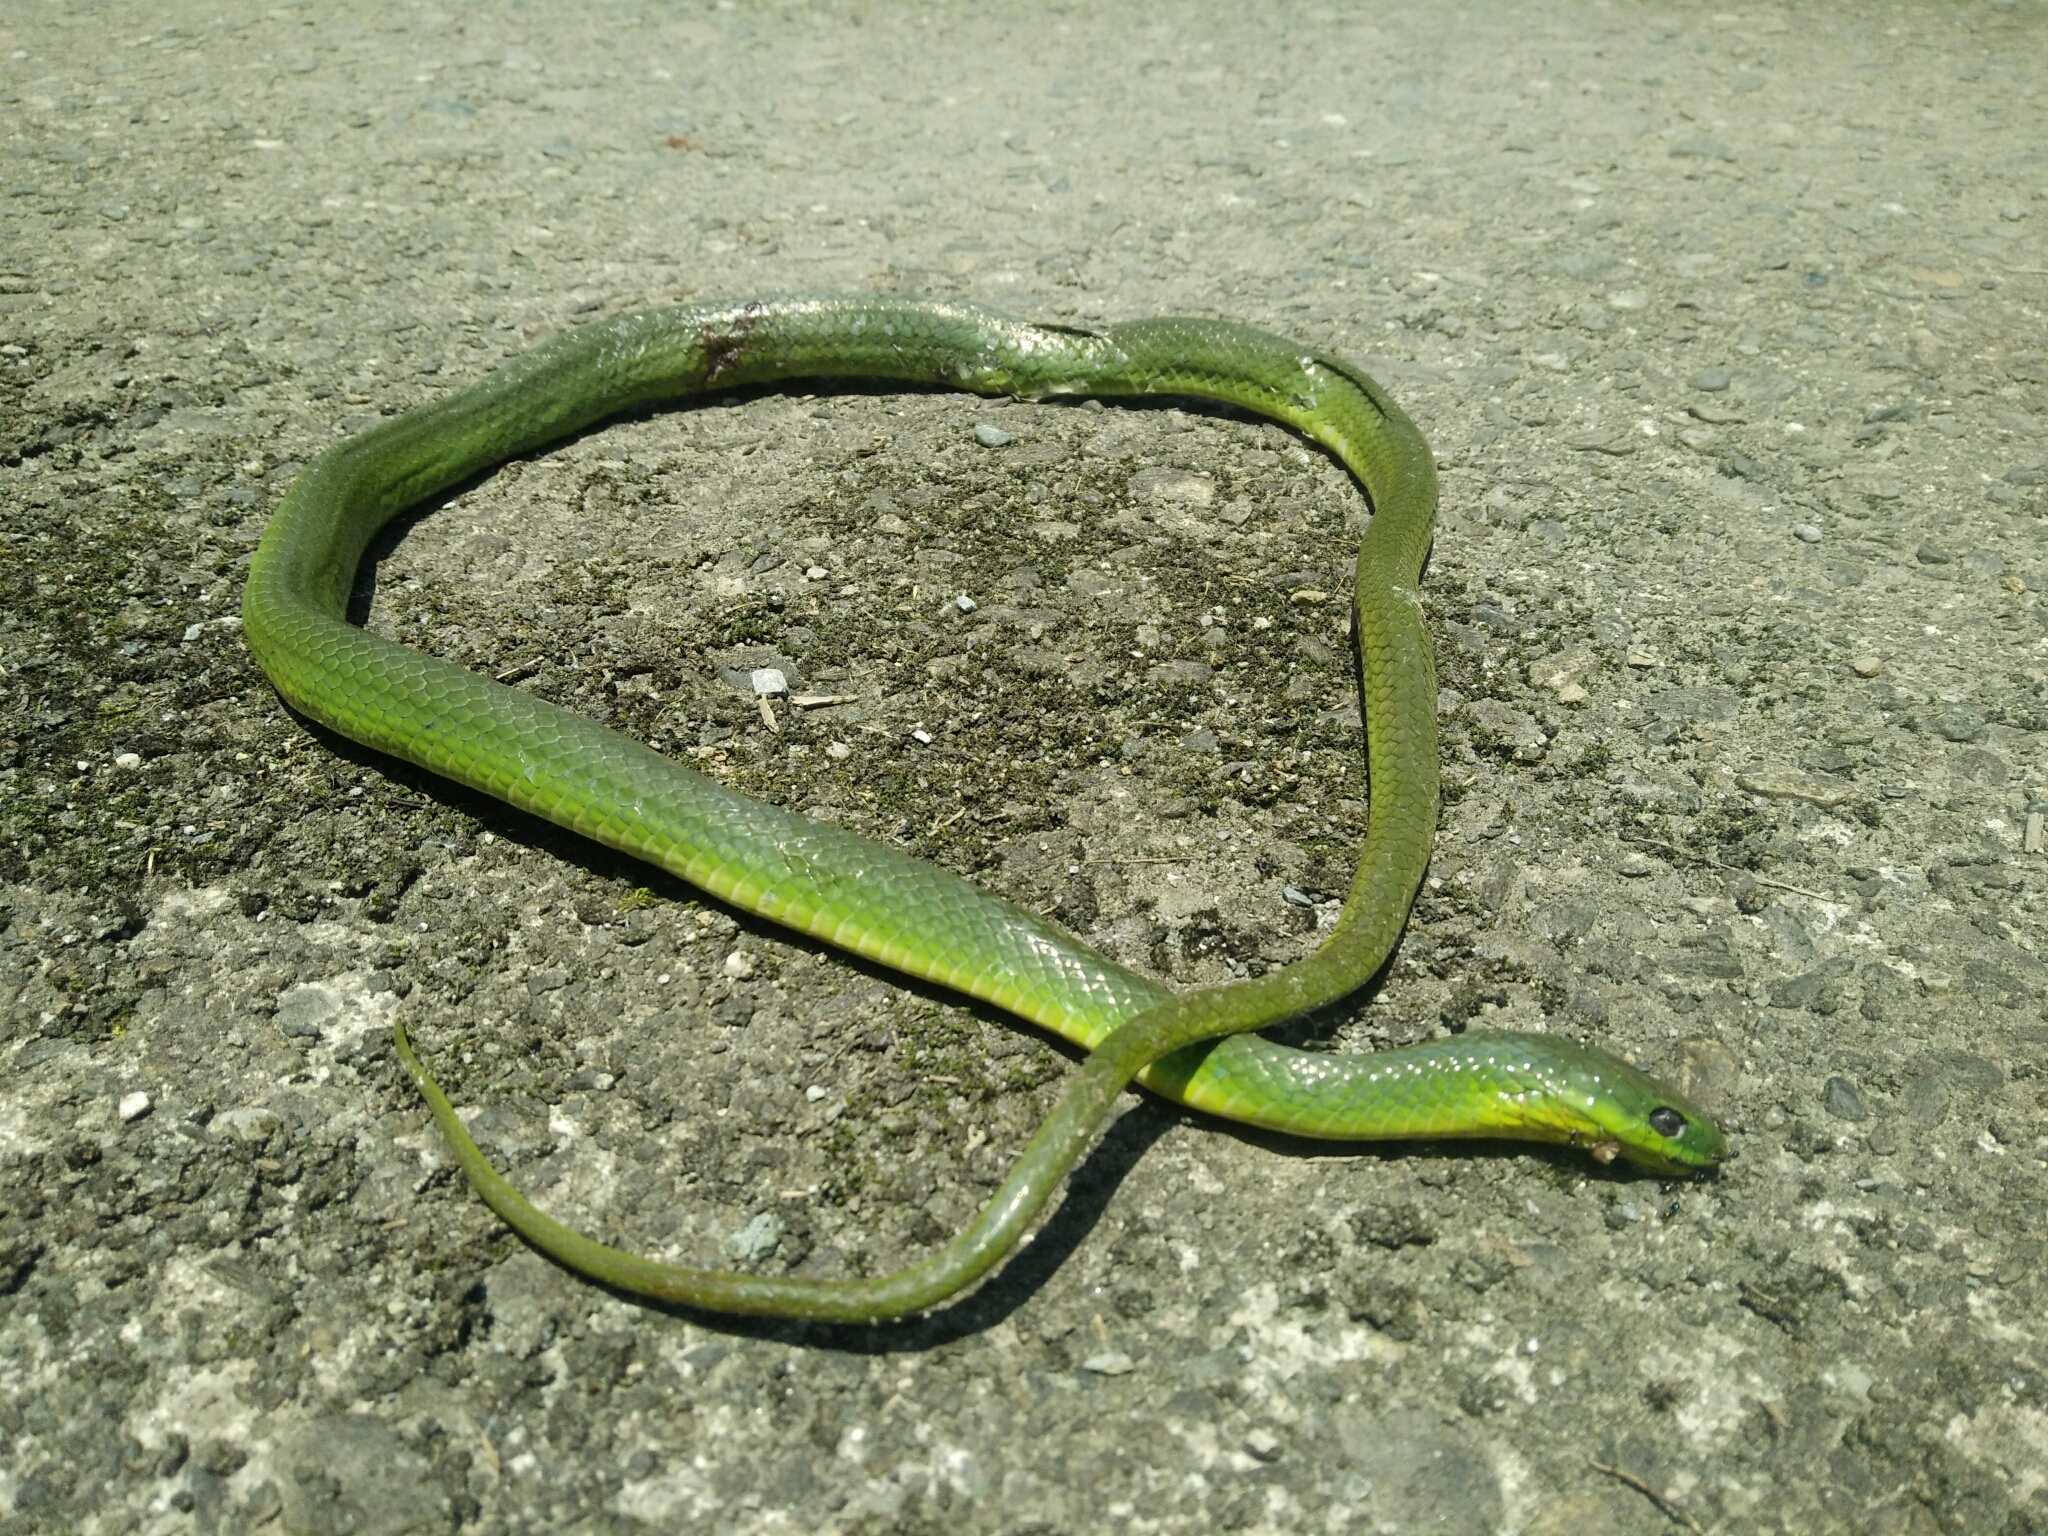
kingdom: Animalia
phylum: Chordata
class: Squamata
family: Colubridae
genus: Ptyas
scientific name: Ptyas major
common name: Chinese green snake
